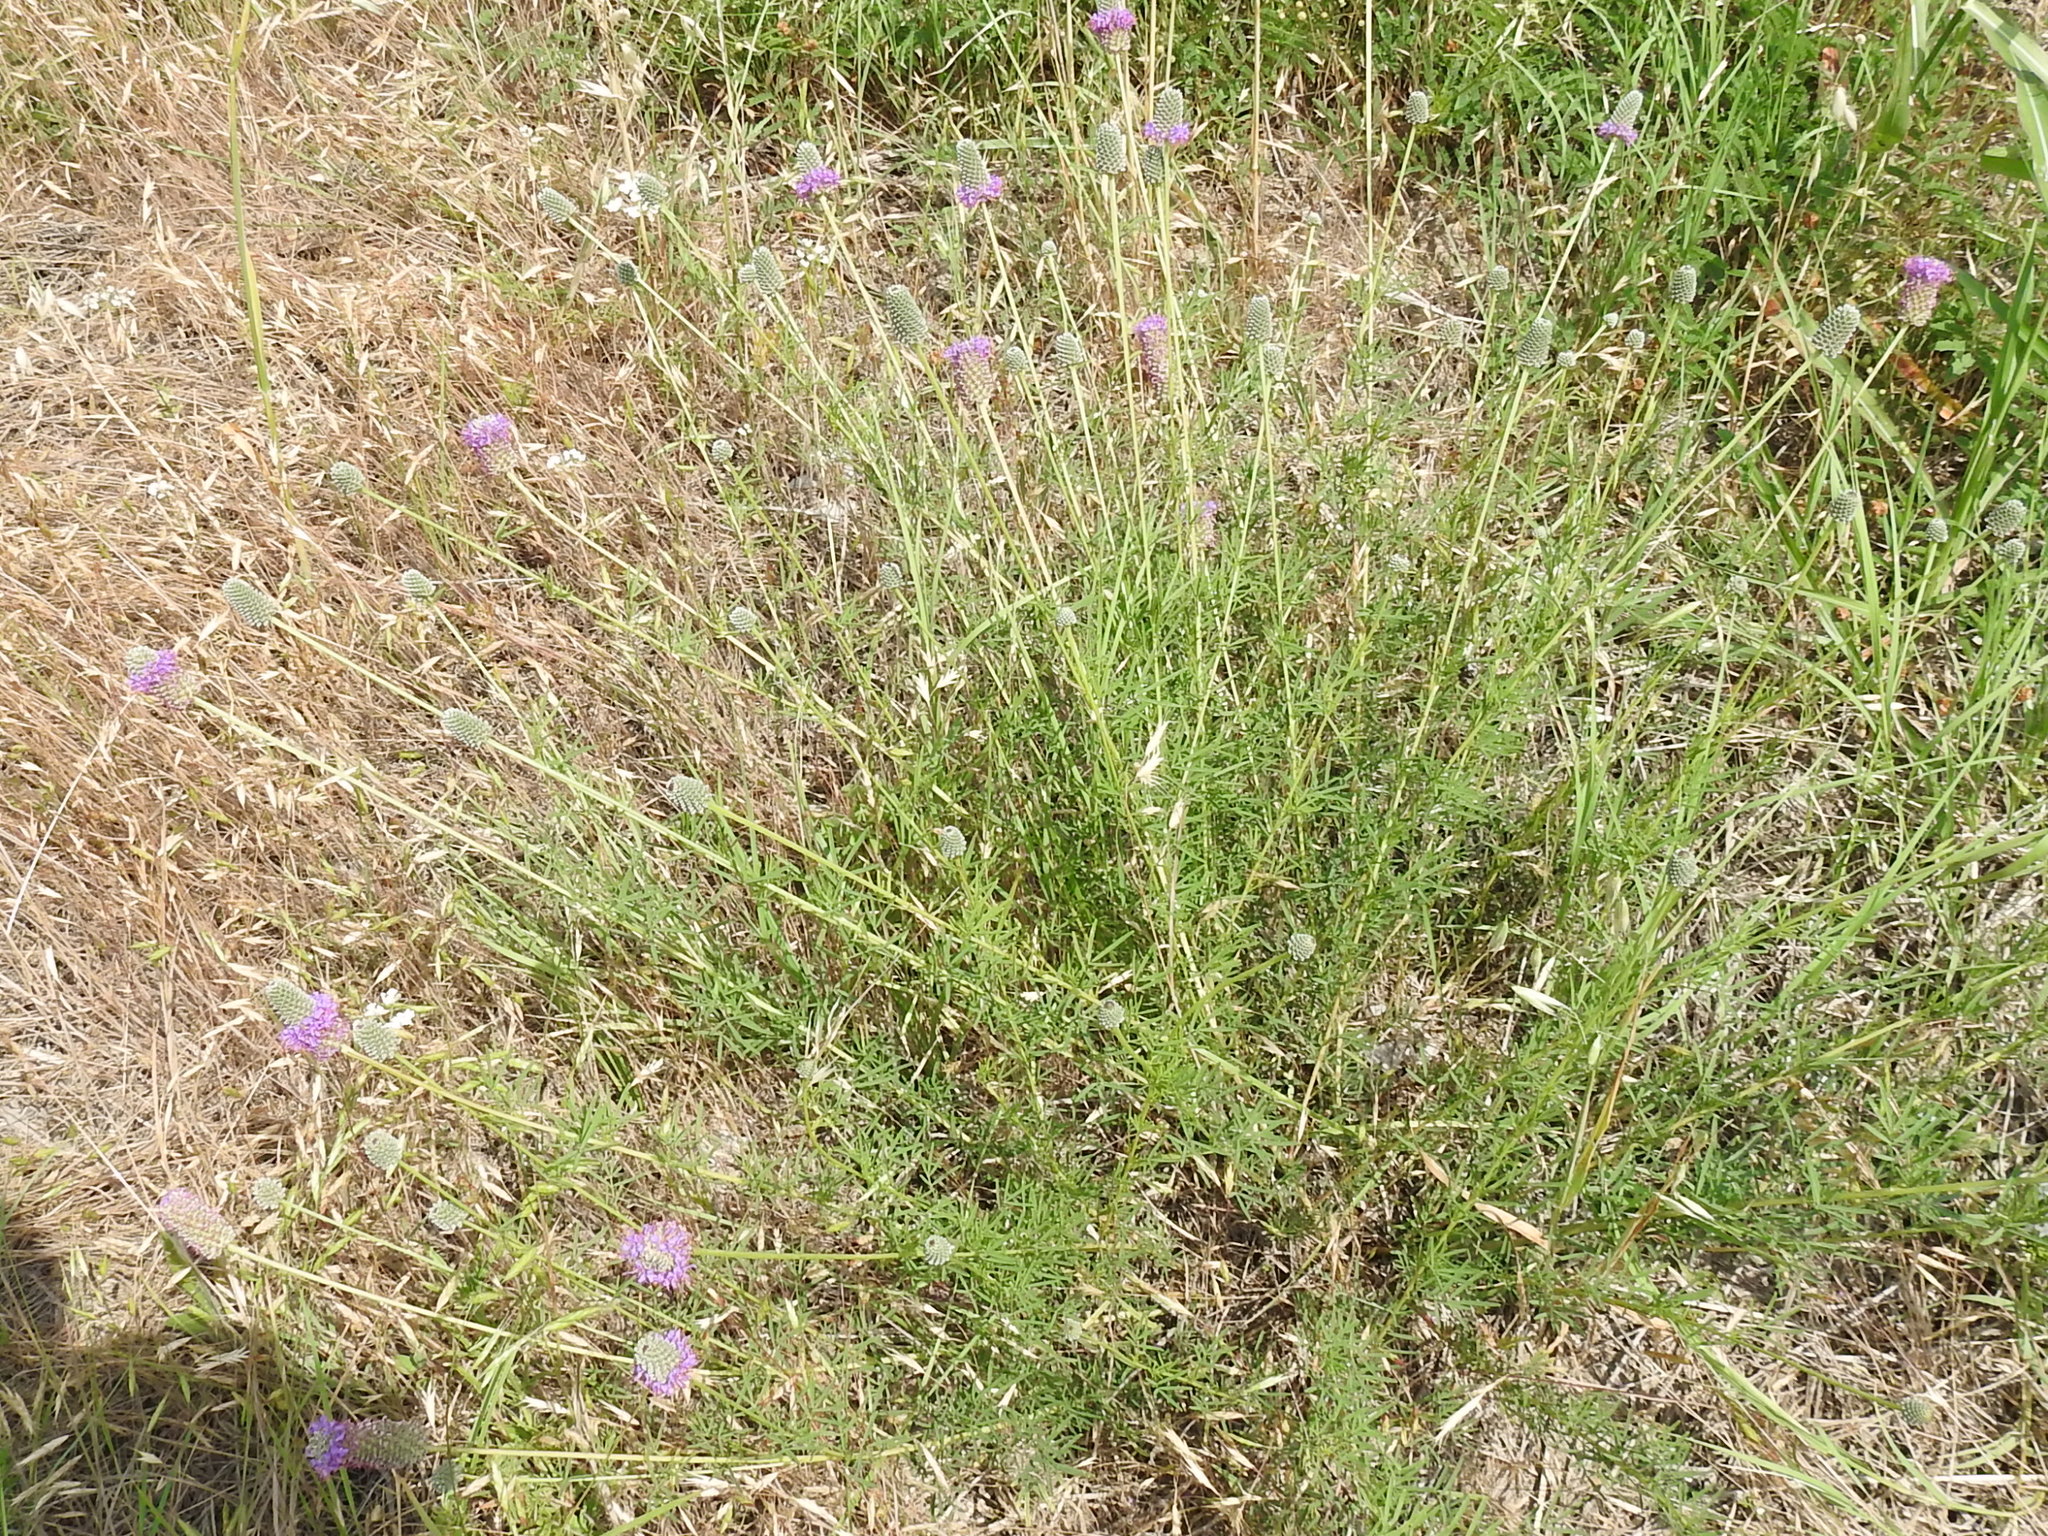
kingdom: Plantae
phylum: Tracheophyta
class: Magnoliopsida
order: Fabales
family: Fabaceae
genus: Dalea
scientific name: Dalea compacta
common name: Compact prairie-clover
